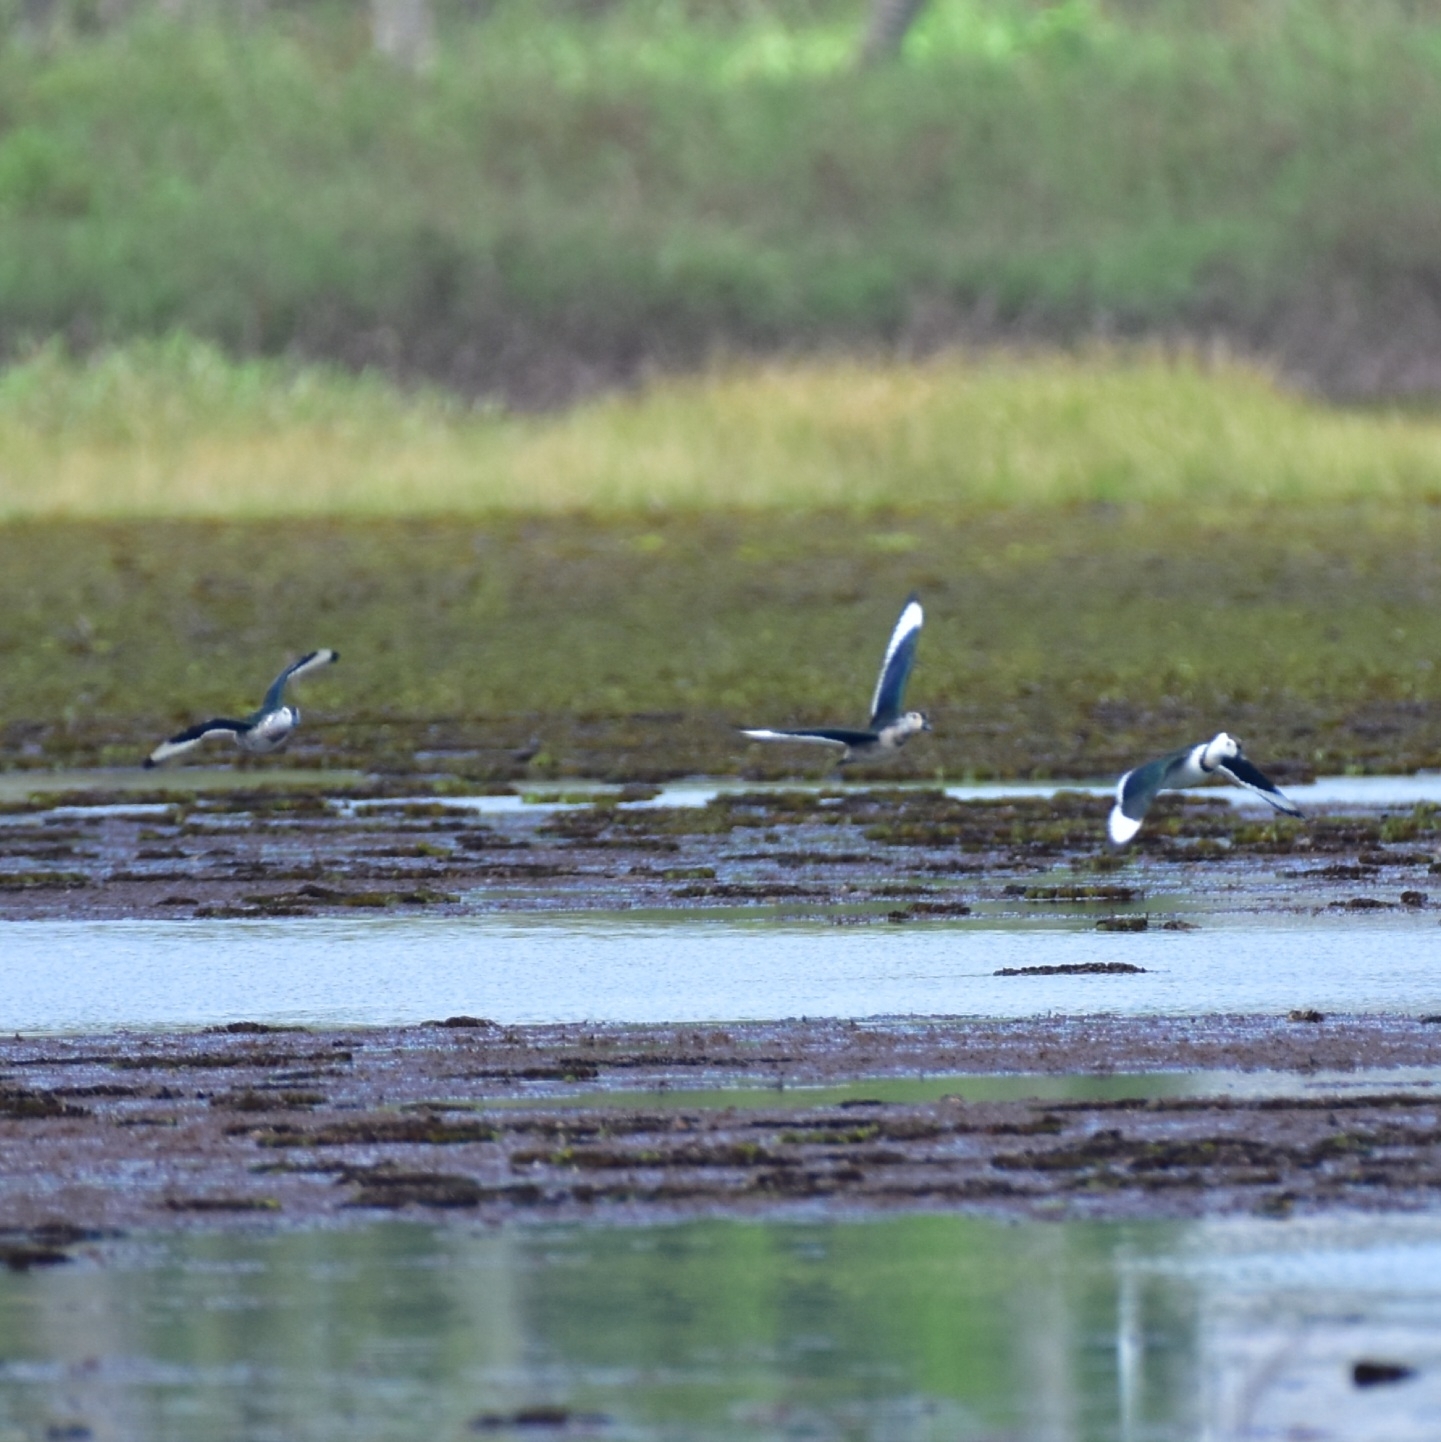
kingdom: Animalia
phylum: Chordata
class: Aves
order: Anseriformes
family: Anatidae
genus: Nettapus
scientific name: Nettapus coromandelianus
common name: Cotton pygmy-goose
